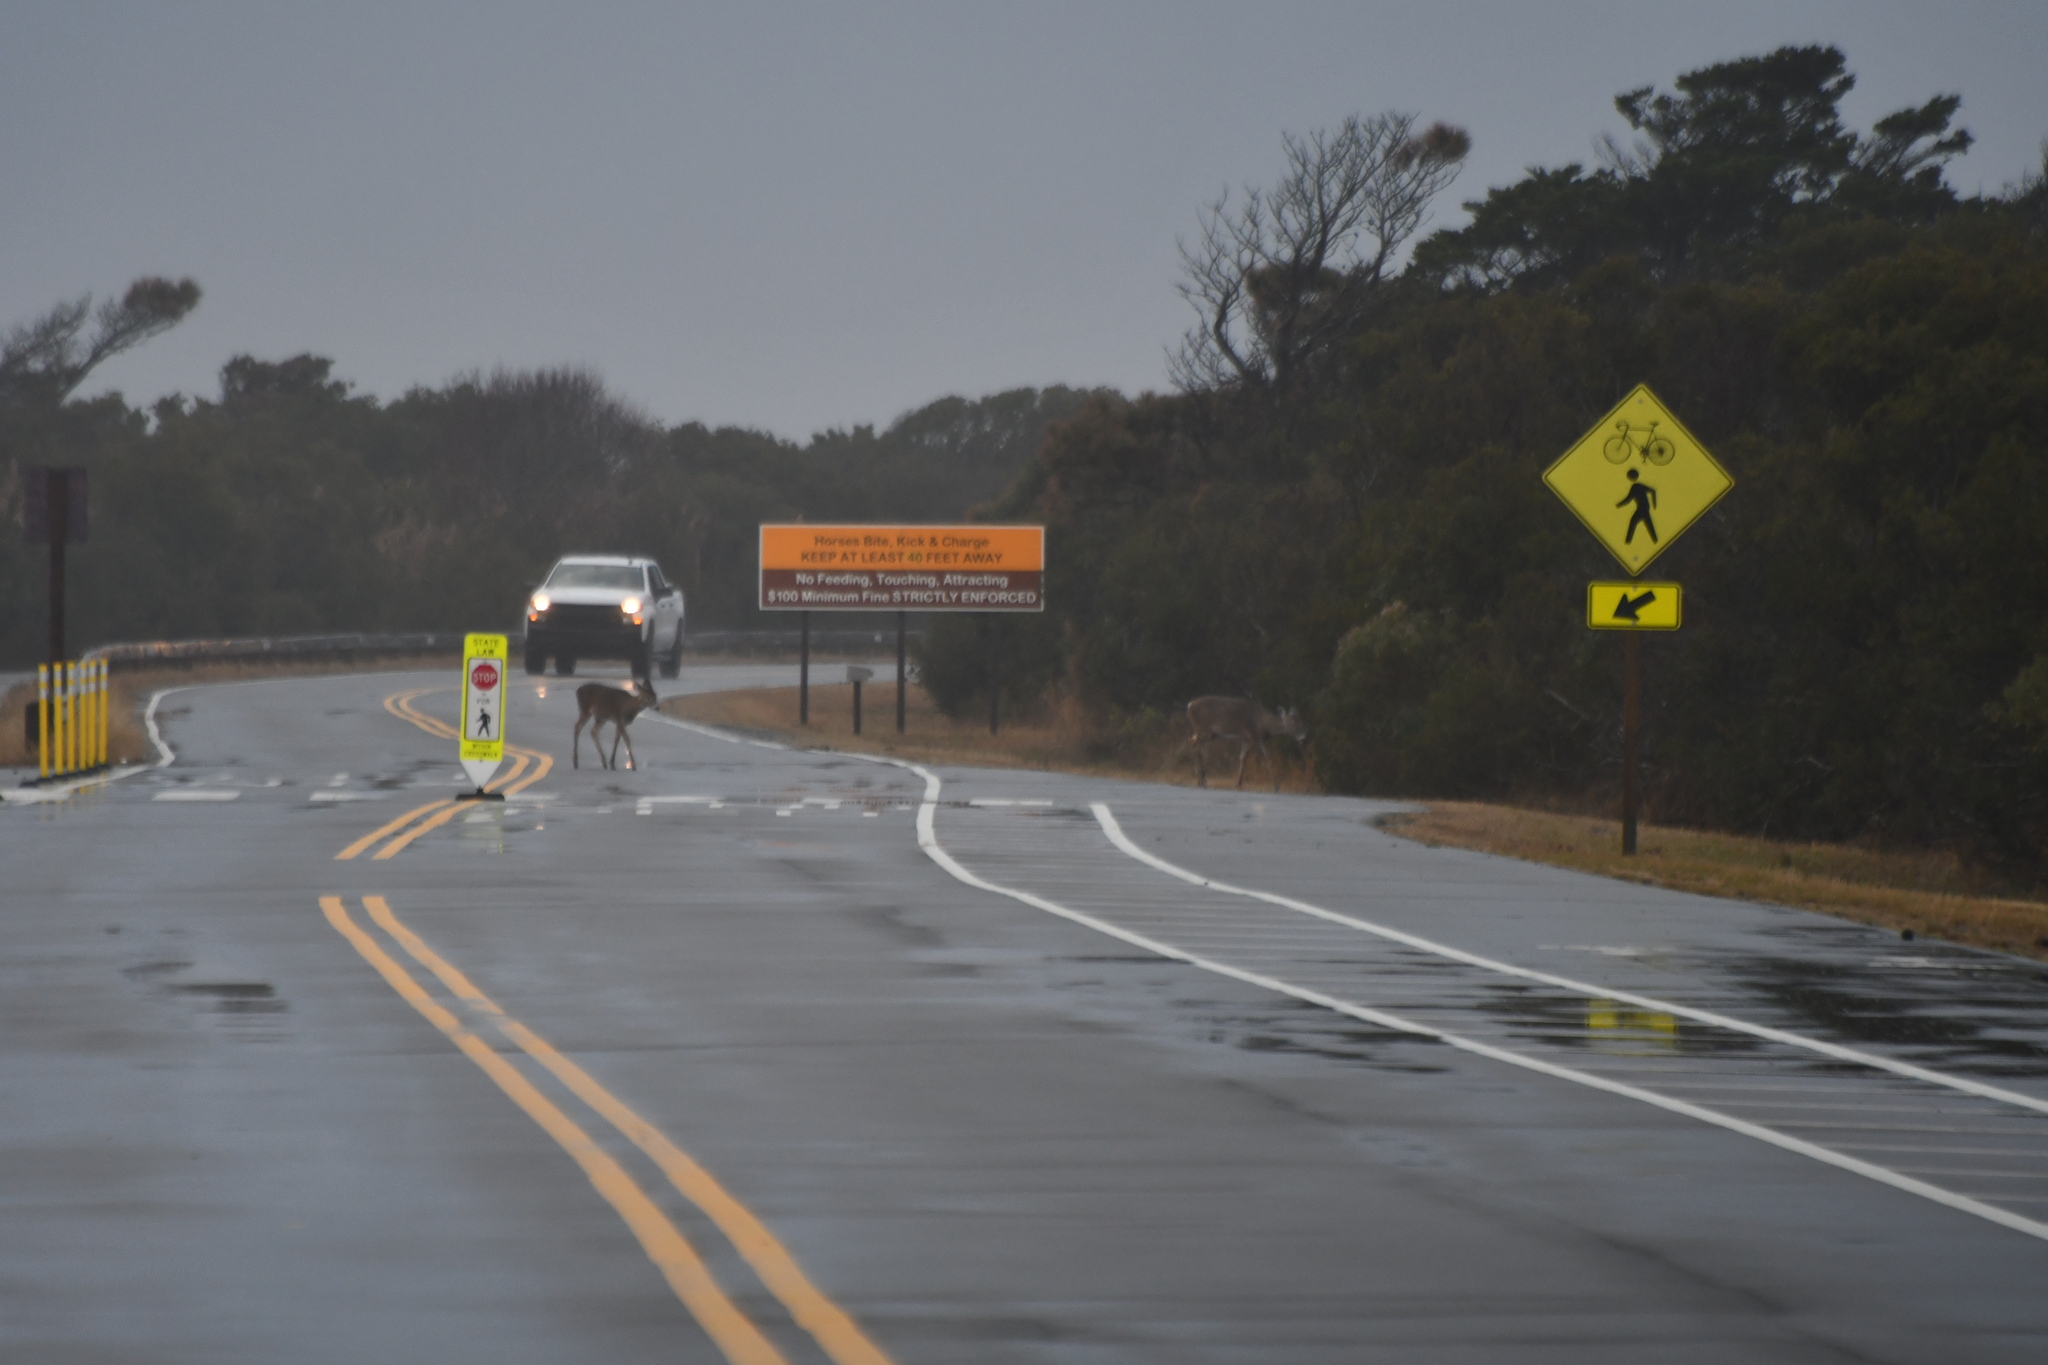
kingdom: Animalia
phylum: Chordata
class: Mammalia
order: Artiodactyla
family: Cervidae
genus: Odocoileus
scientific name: Odocoileus virginianus
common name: White-tailed deer
